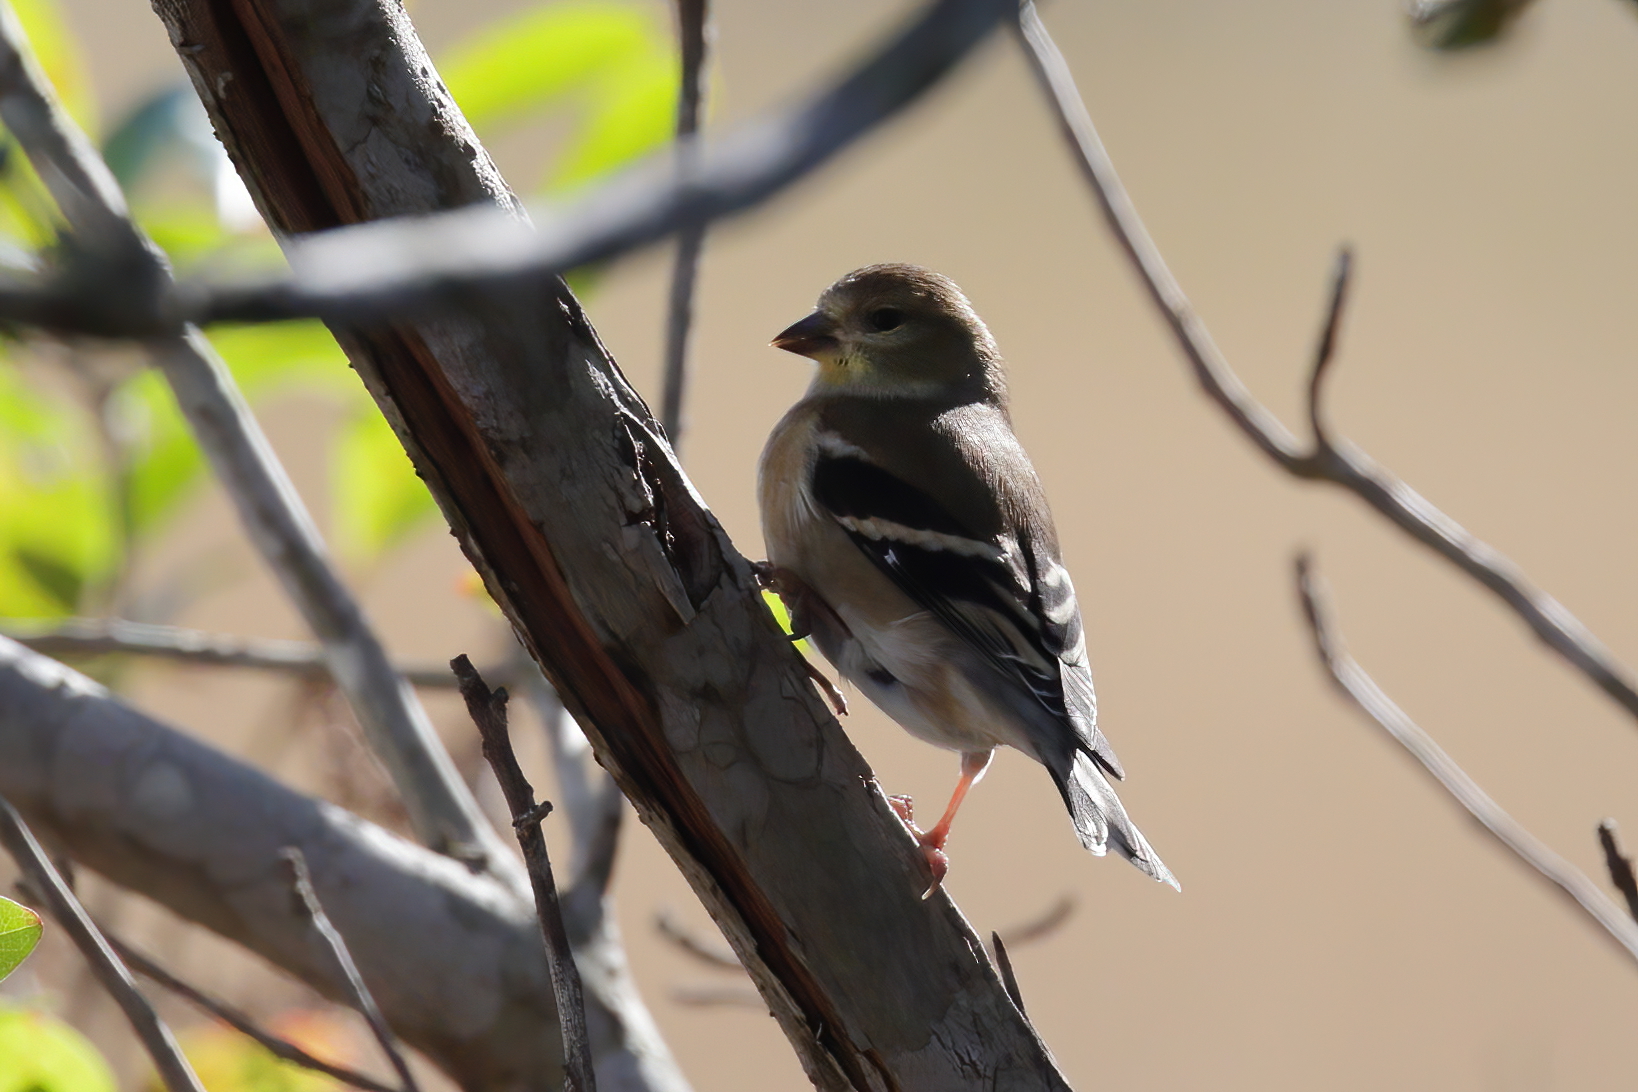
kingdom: Animalia
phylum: Chordata
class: Aves
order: Passeriformes
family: Fringillidae
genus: Spinus
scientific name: Spinus tristis
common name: American goldfinch
